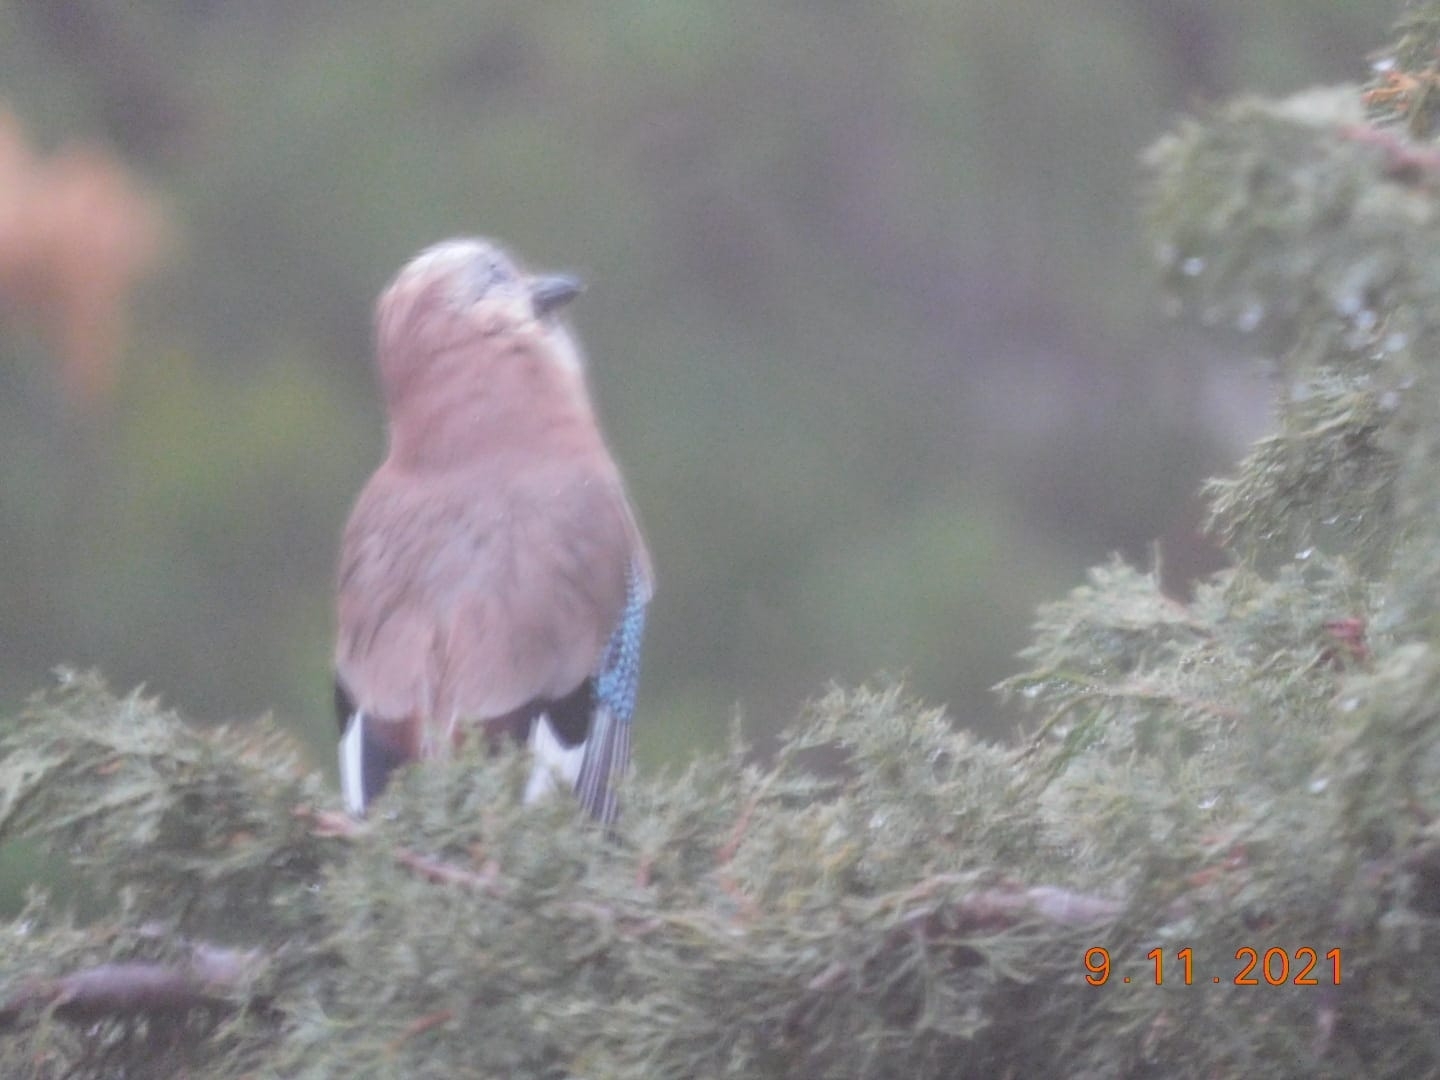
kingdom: Animalia
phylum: Chordata
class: Aves
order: Passeriformes
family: Corvidae
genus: Garrulus
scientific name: Garrulus glandarius
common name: Eurasian jay
